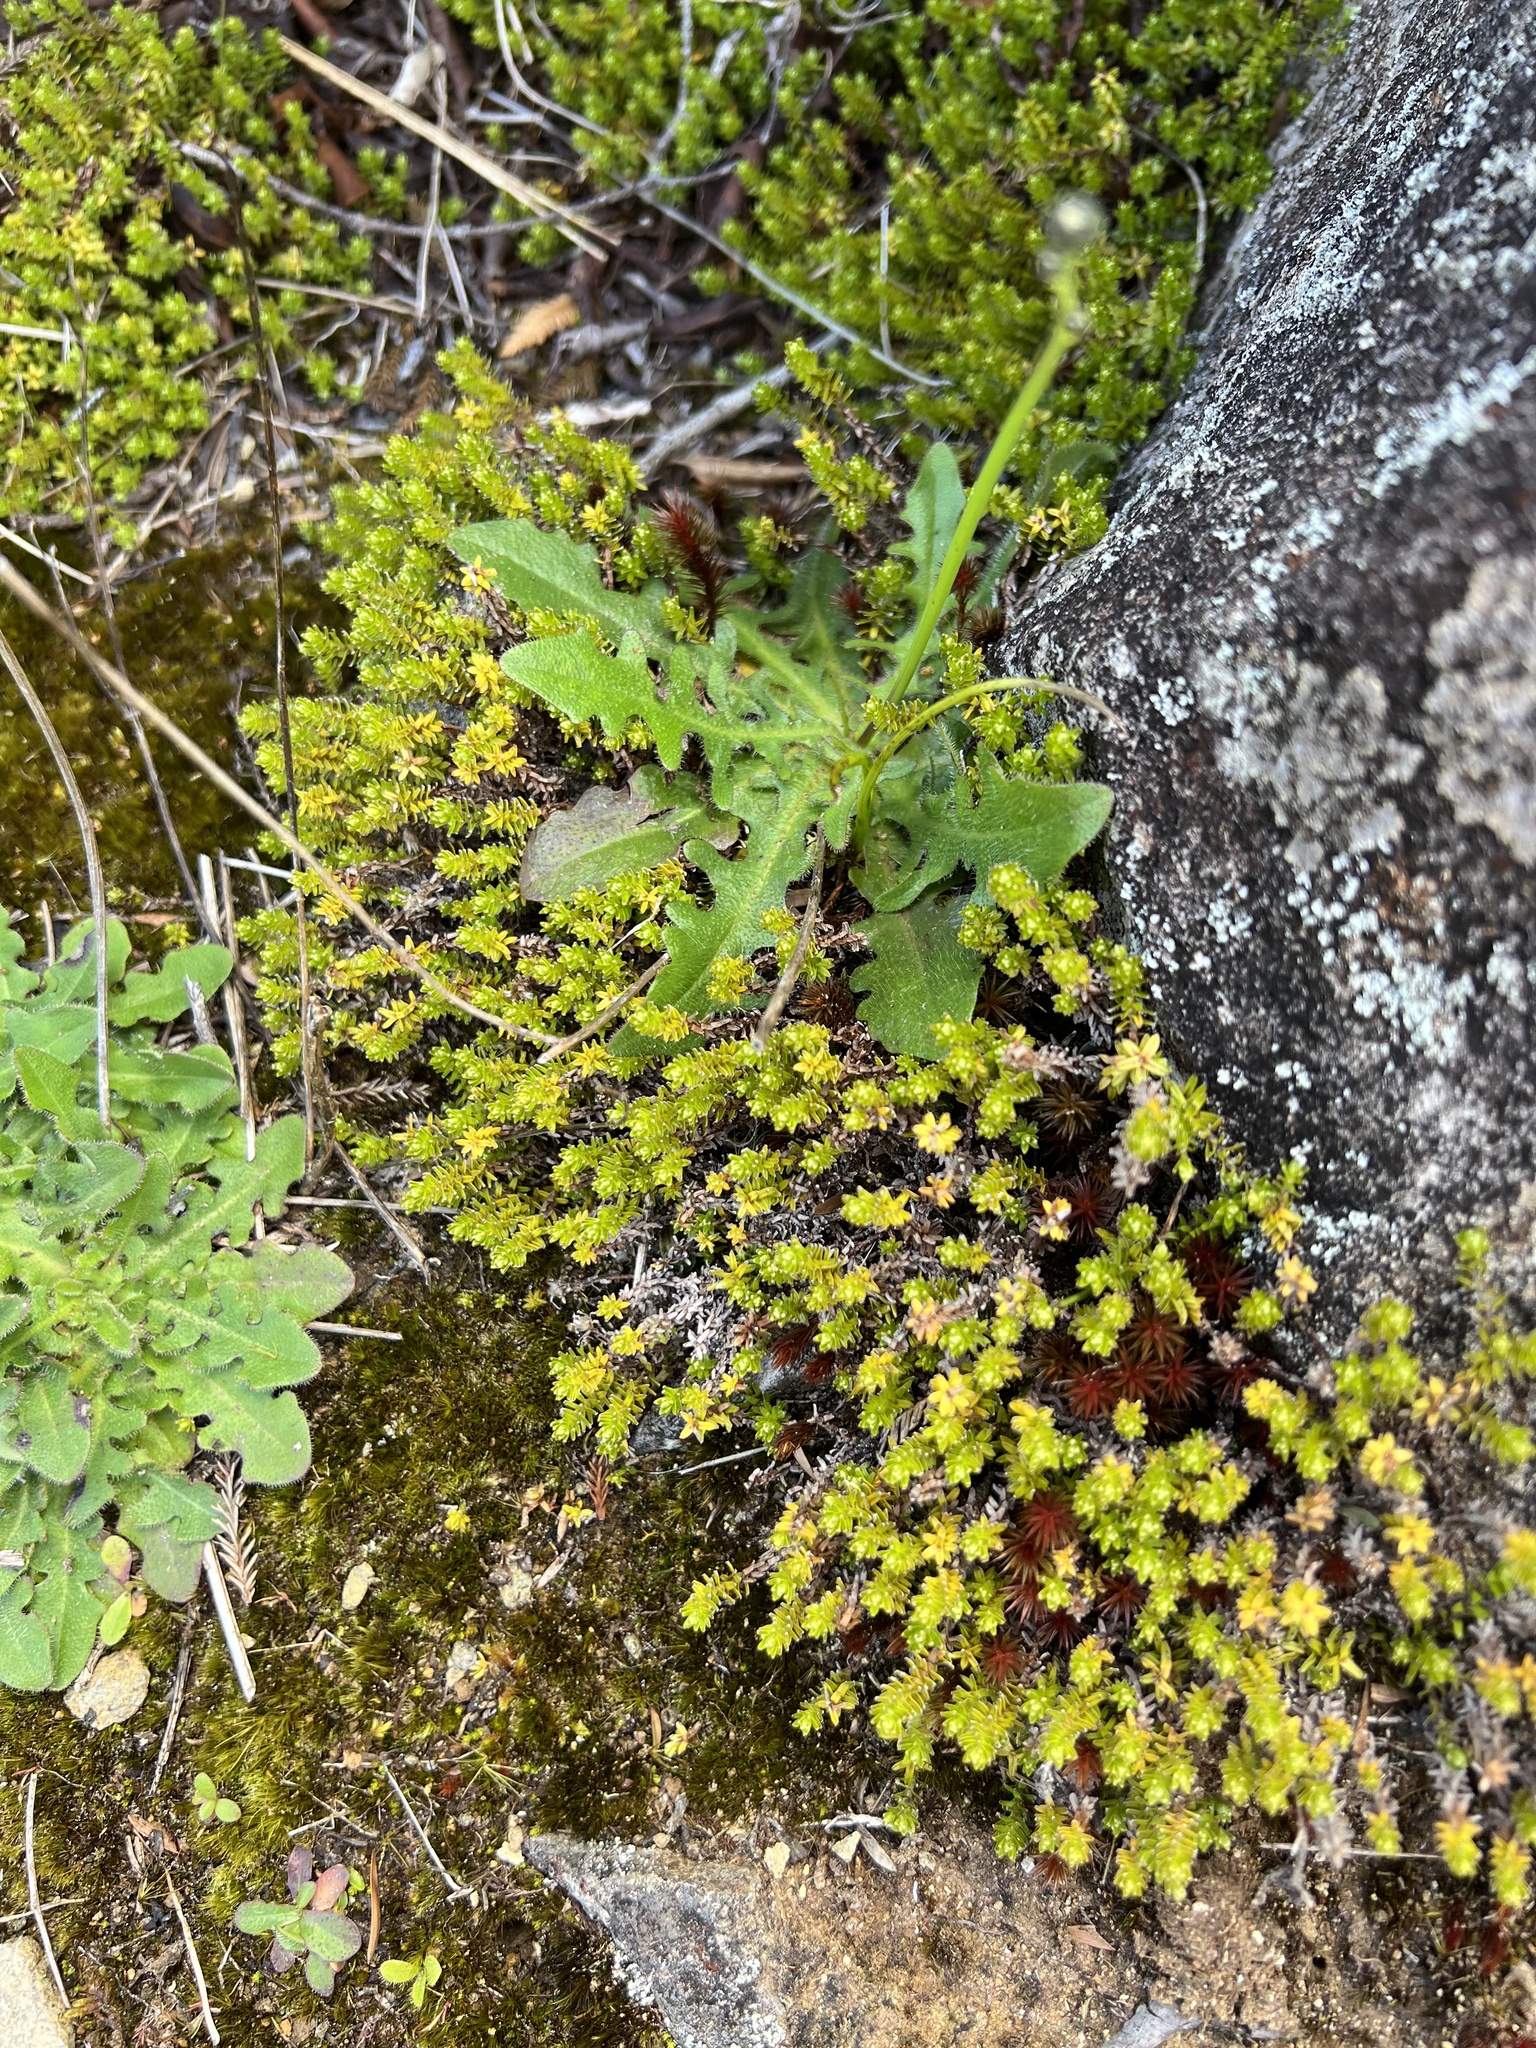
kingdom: Plantae
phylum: Tracheophyta
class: Magnoliopsida
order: Asterales
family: Asteraceae
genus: Raoulia
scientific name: Raoulia glabra
